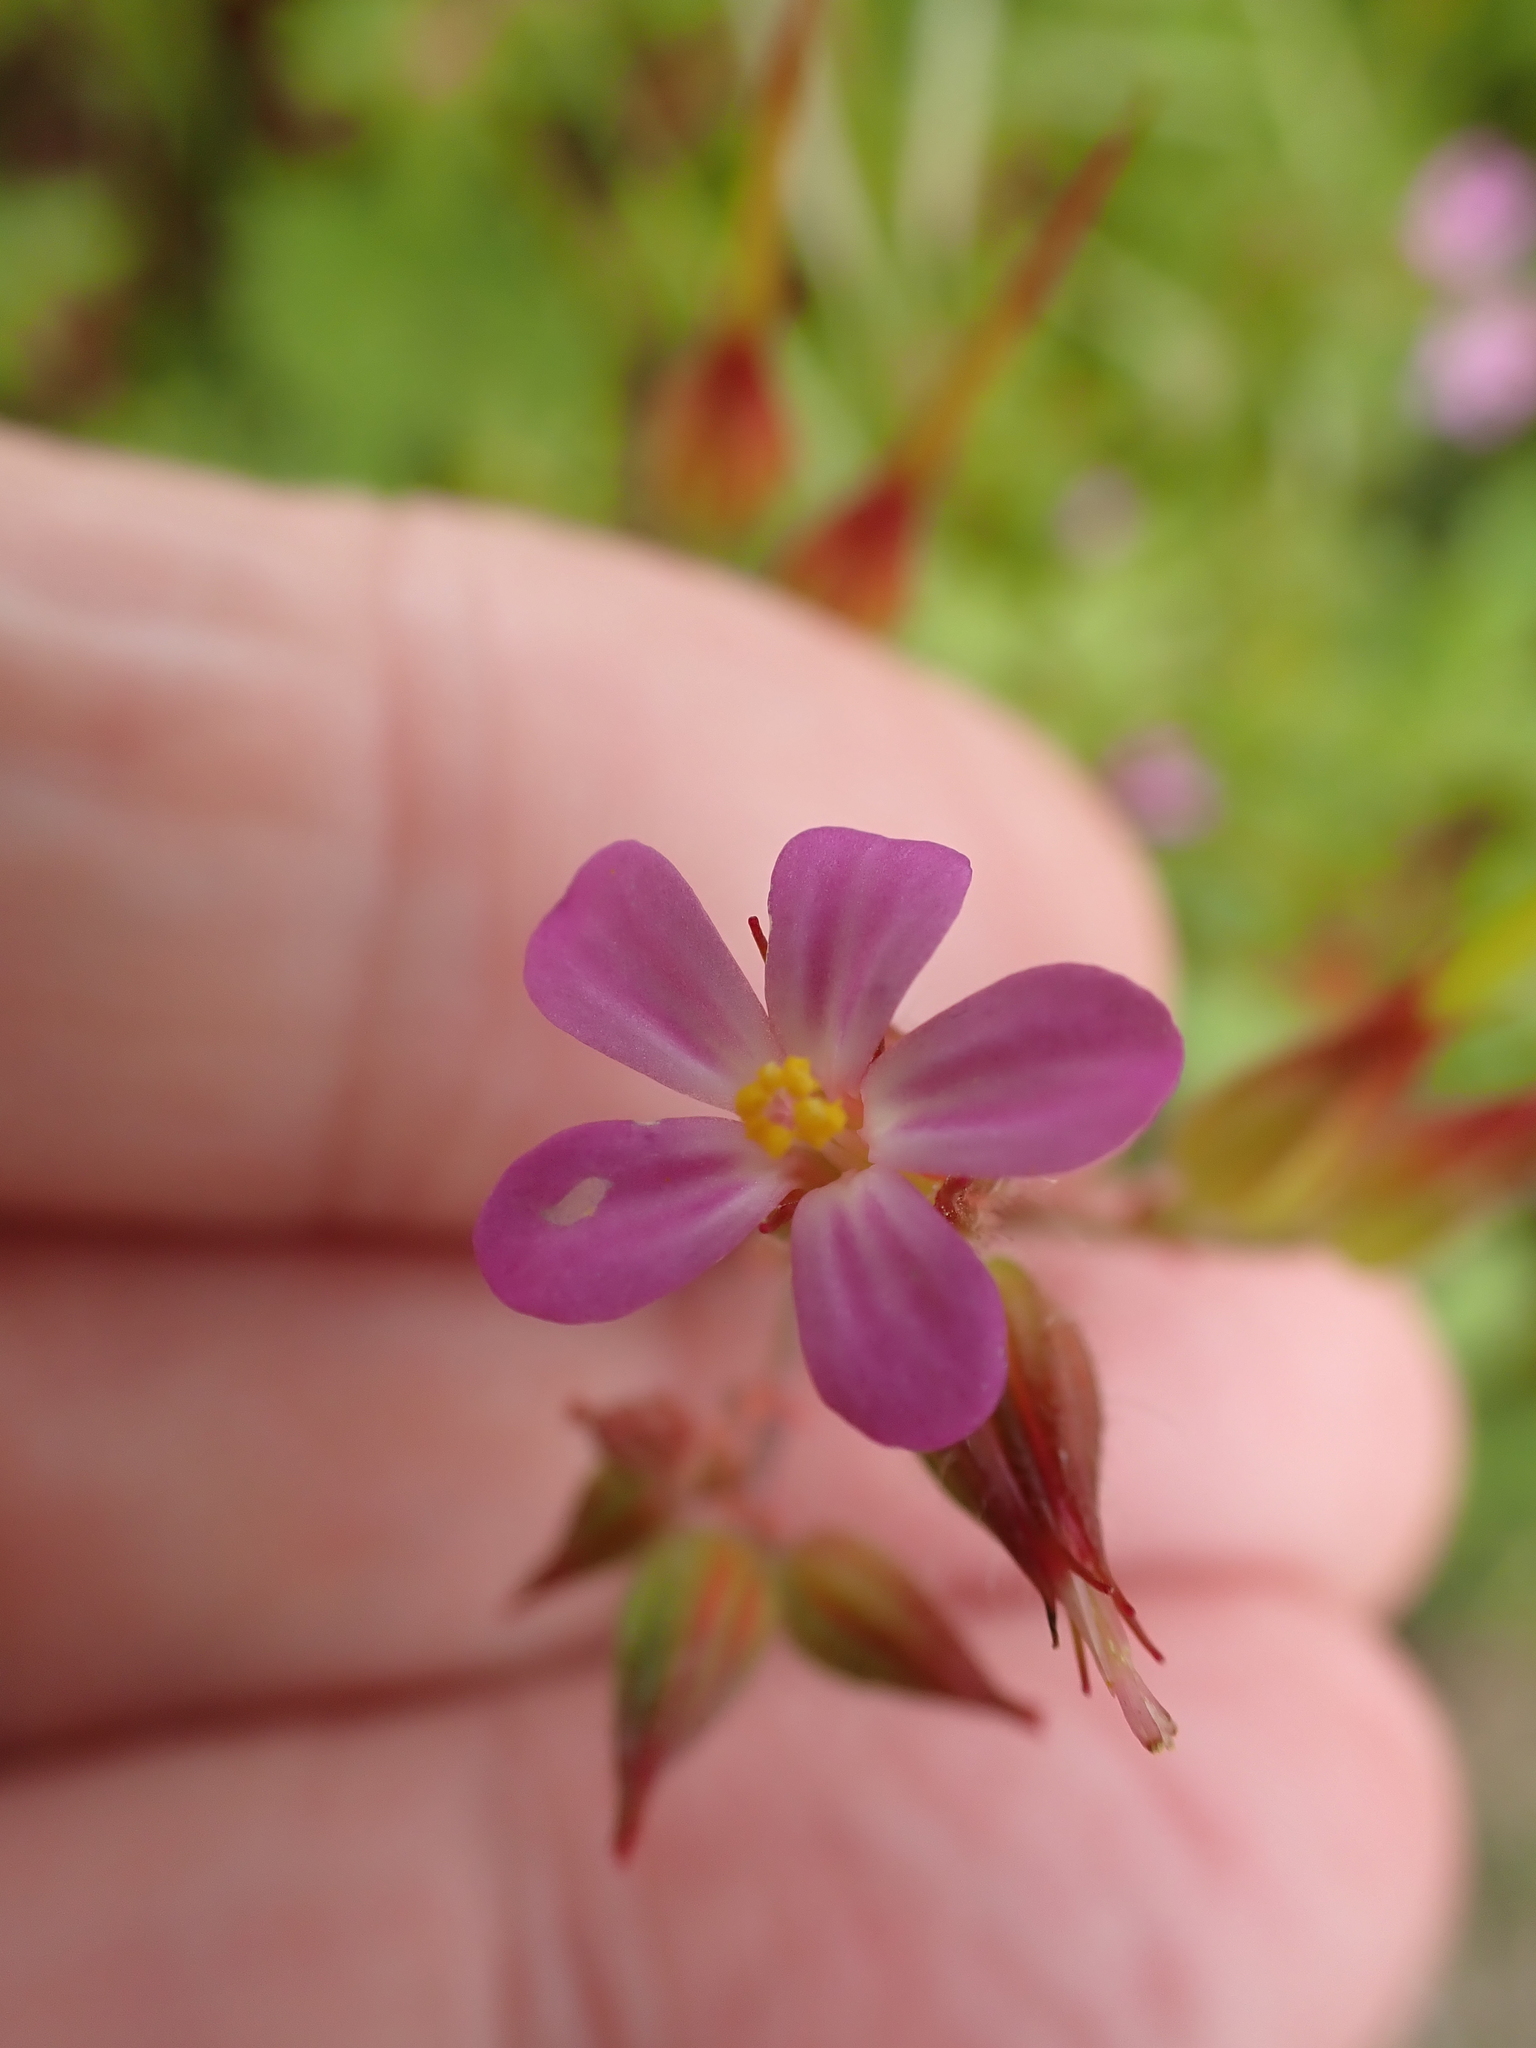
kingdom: Plantae
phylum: Tracheophyta
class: Magnoliopsida
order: Geraniales
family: Geraniaceae
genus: Geranium
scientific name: Geranium purpureum
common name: Little-robin
